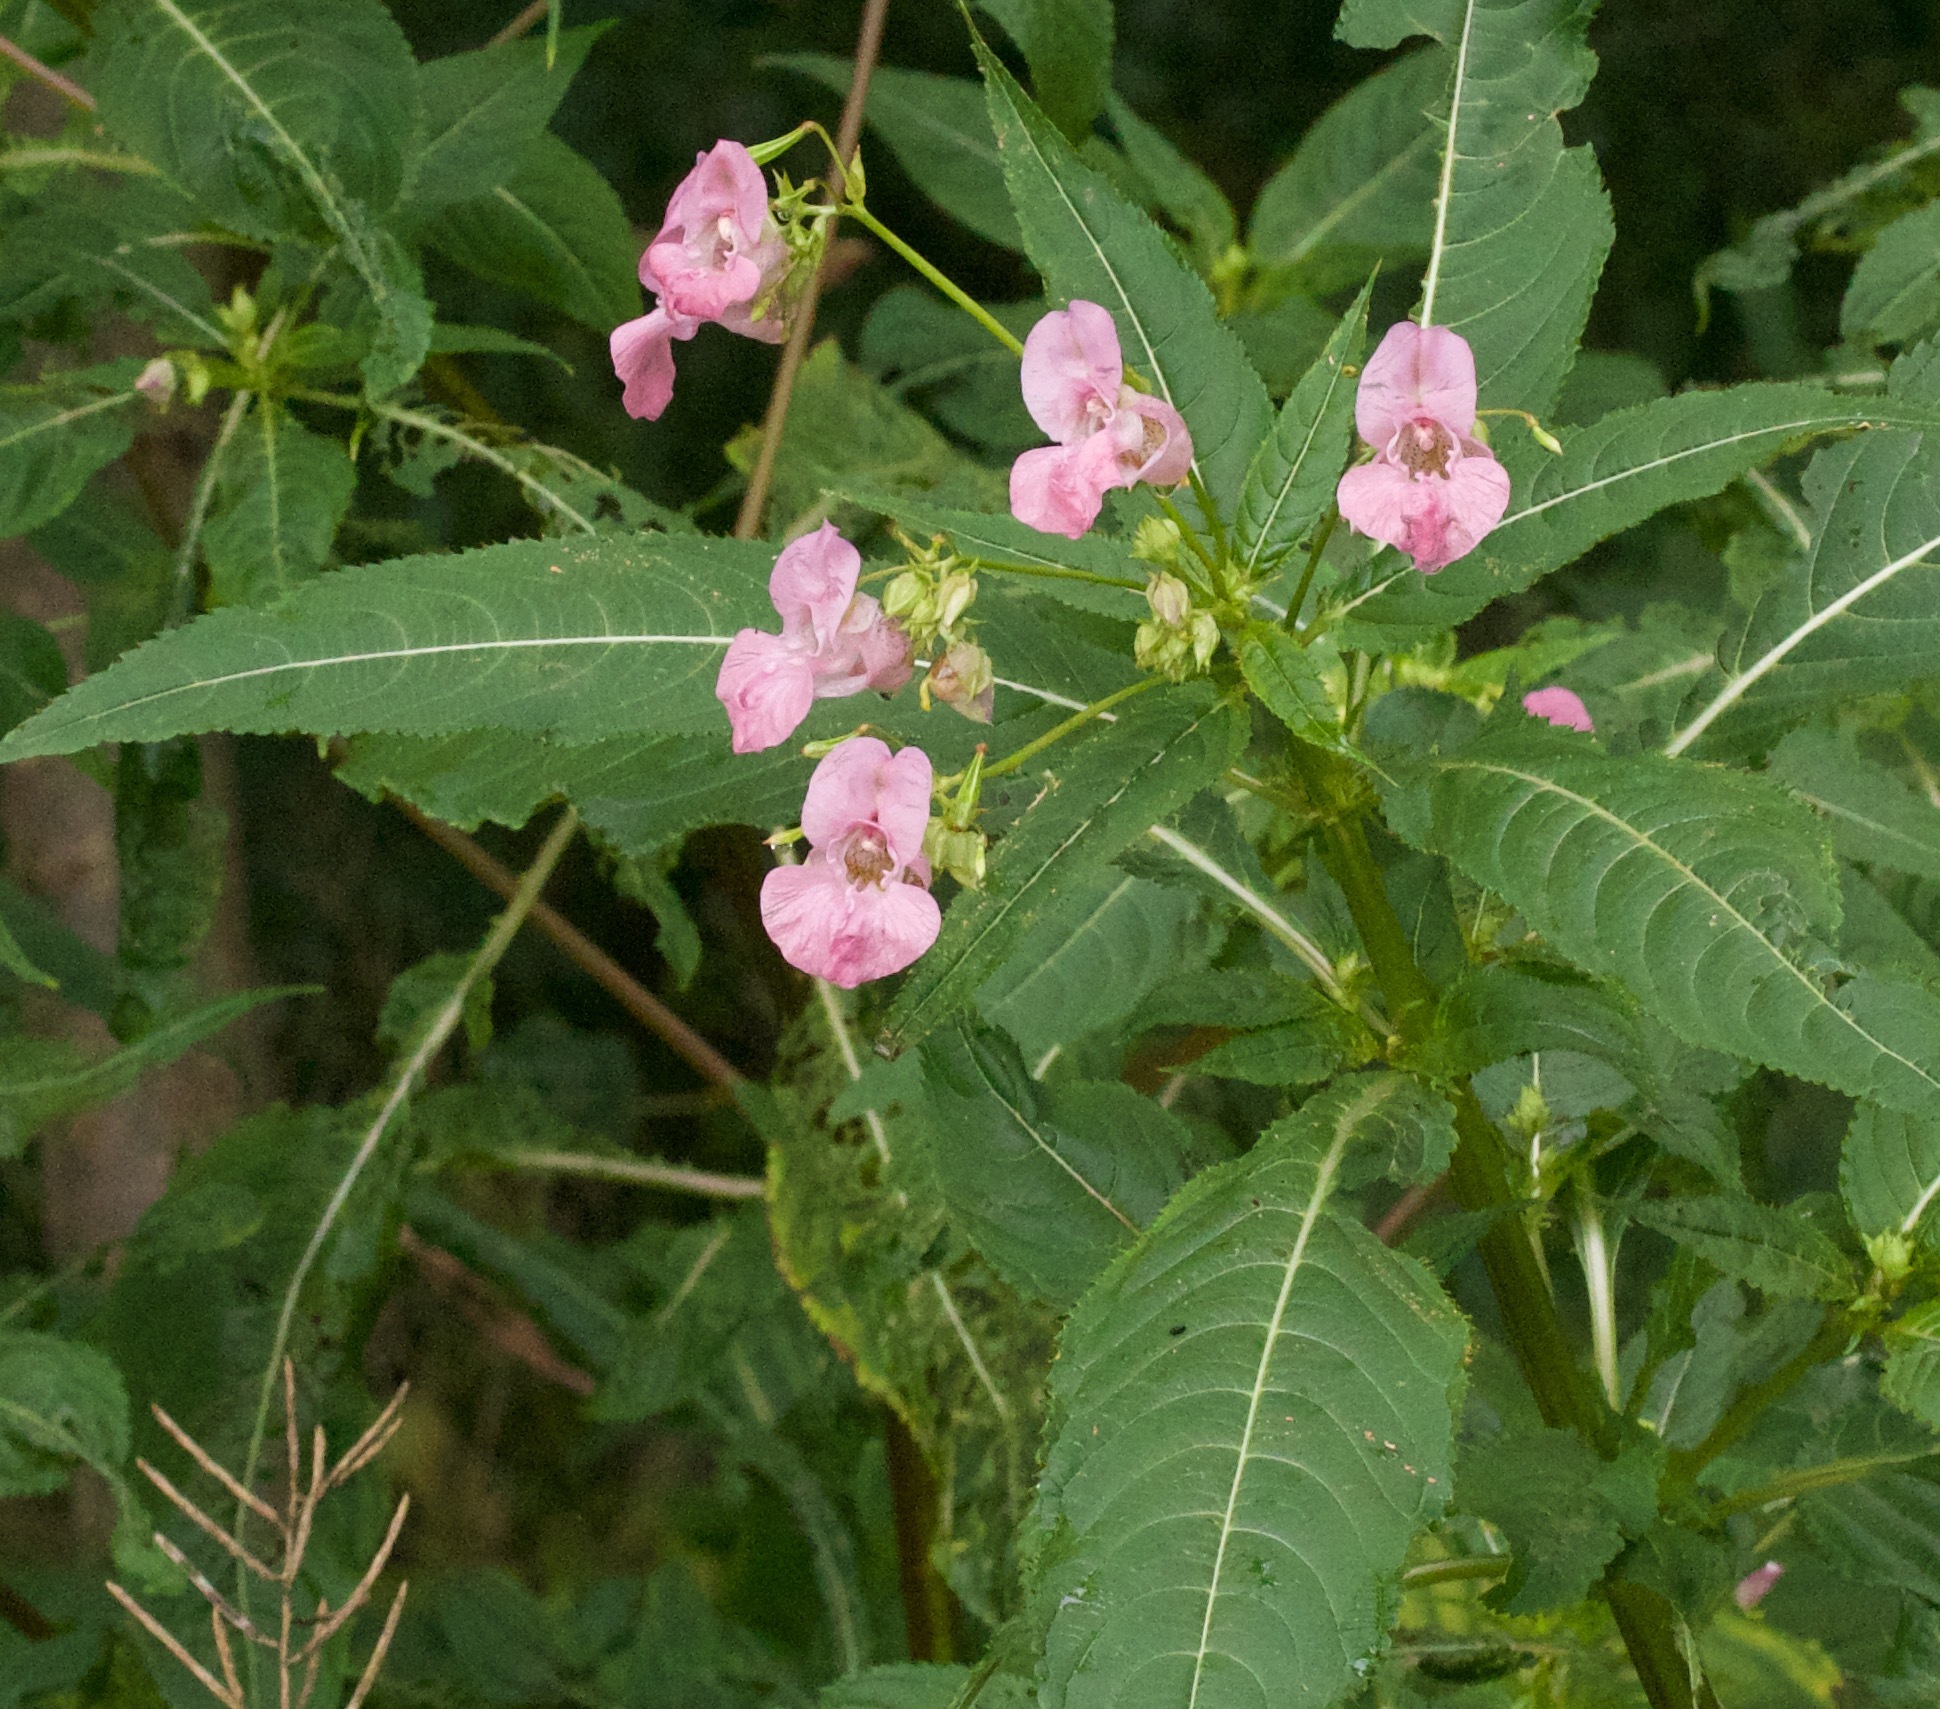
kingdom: Plantae
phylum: Tracheophyta
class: Magnoliopsida
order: Ericales
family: Balsaminaceae
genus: Impatiens
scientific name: Impatiens glandulifera
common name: Himalayan balsam
